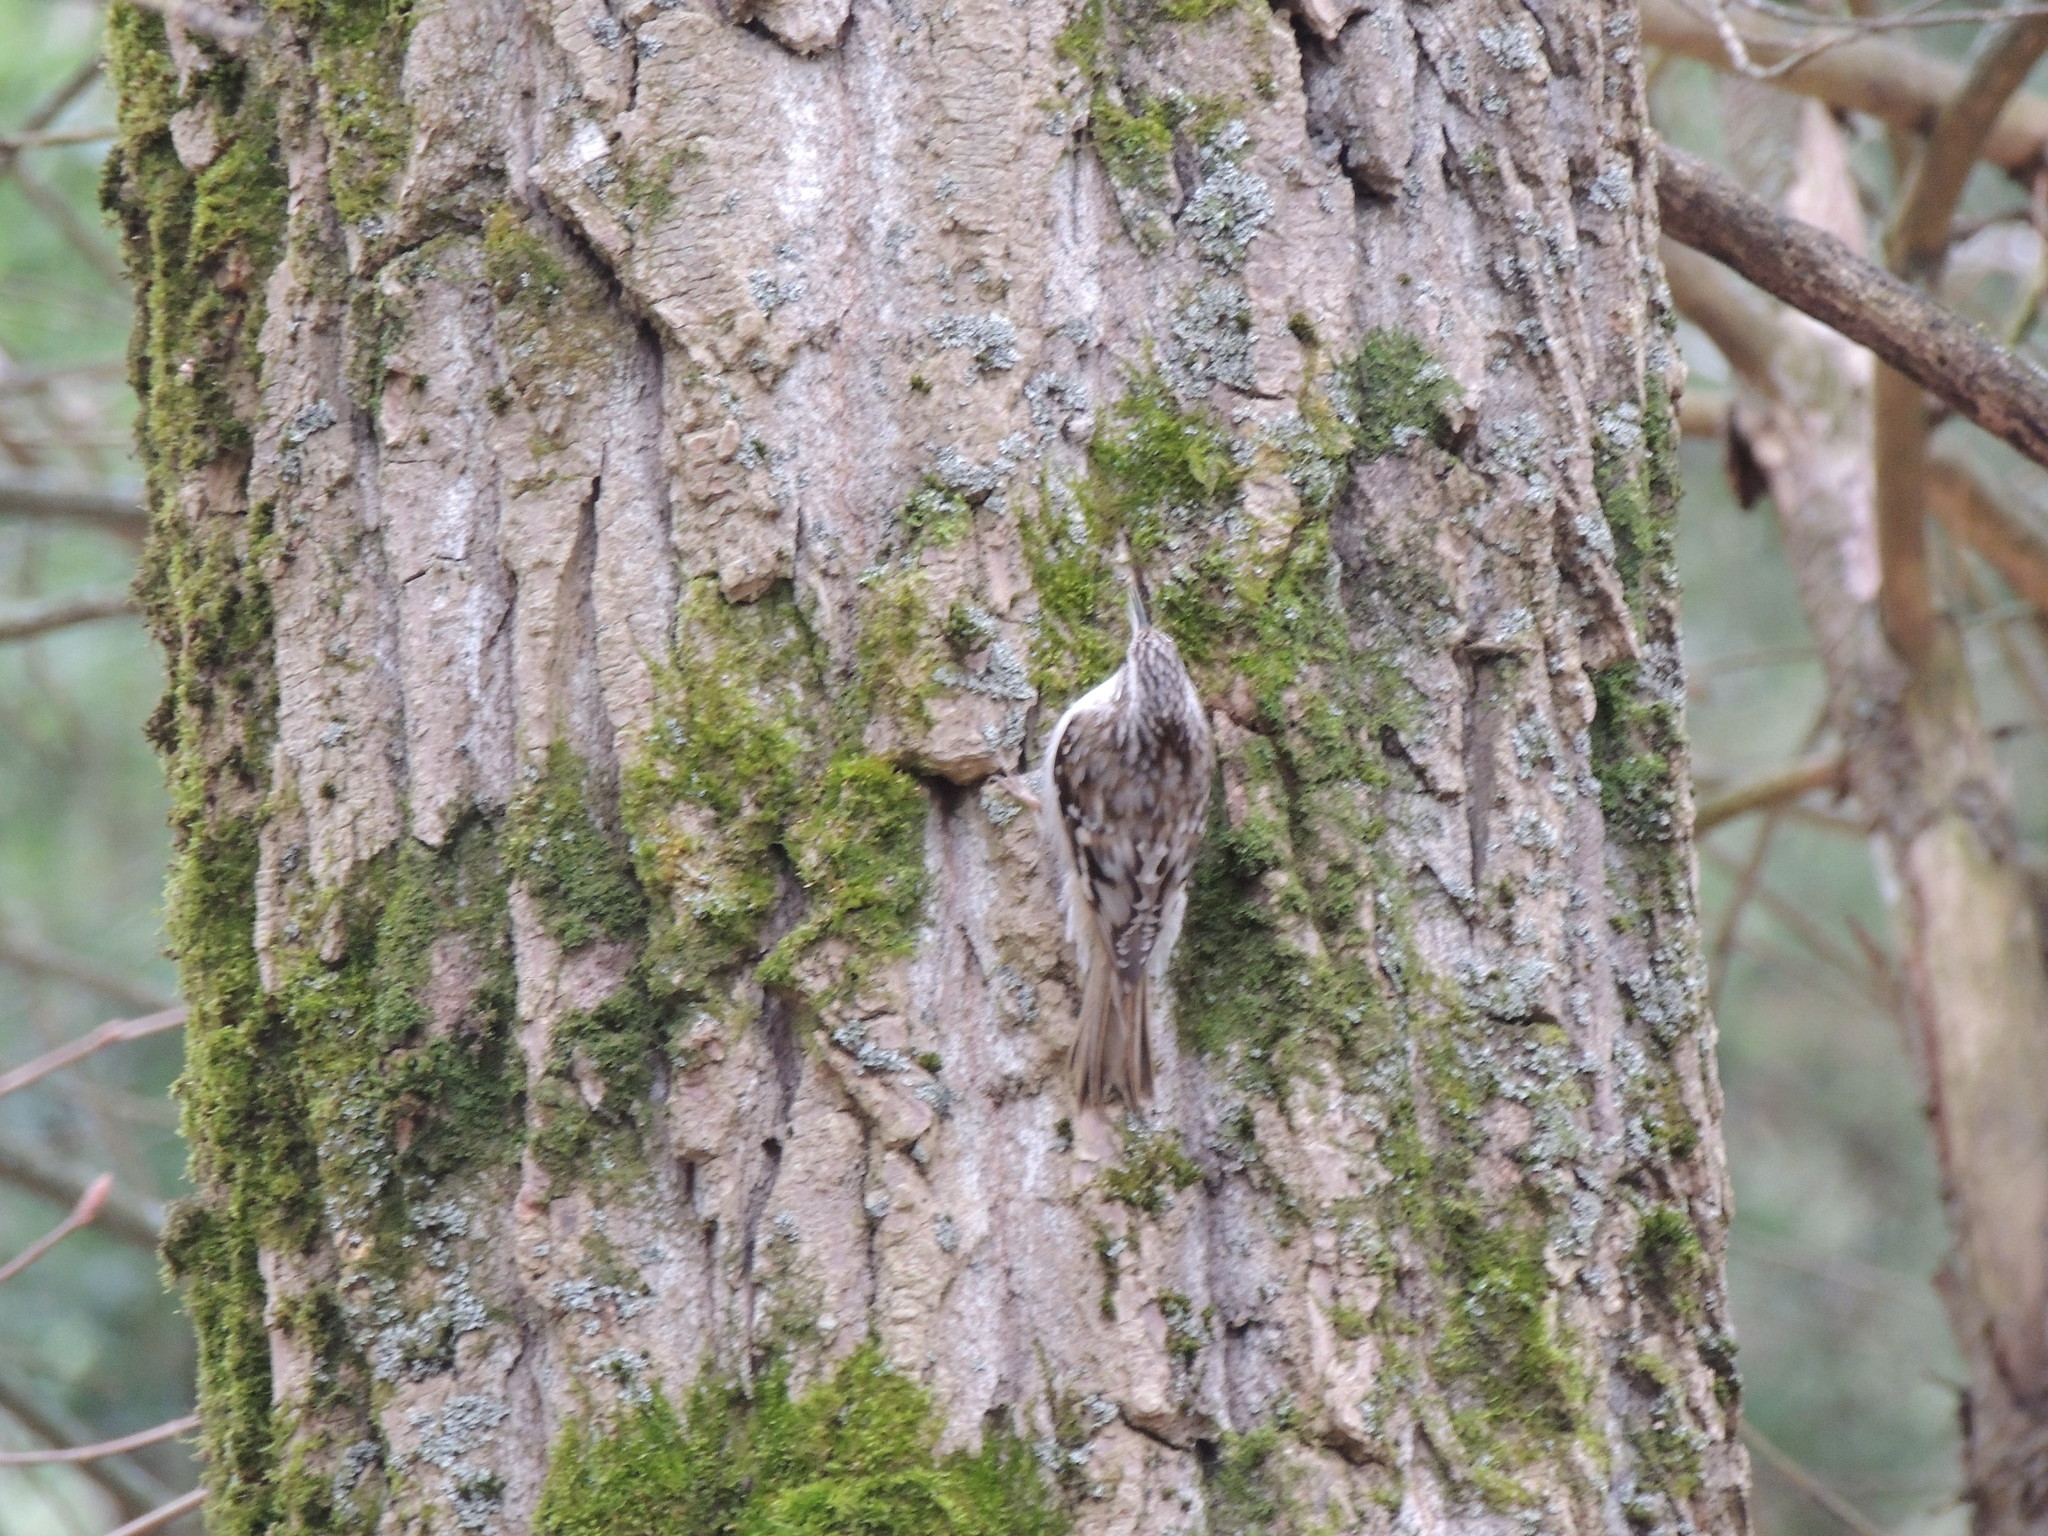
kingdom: Animalia
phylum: Chordata
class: Aves
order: Passeriformes
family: Certhiidae
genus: Certhia
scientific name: Certhia americana
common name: Brown creeper
